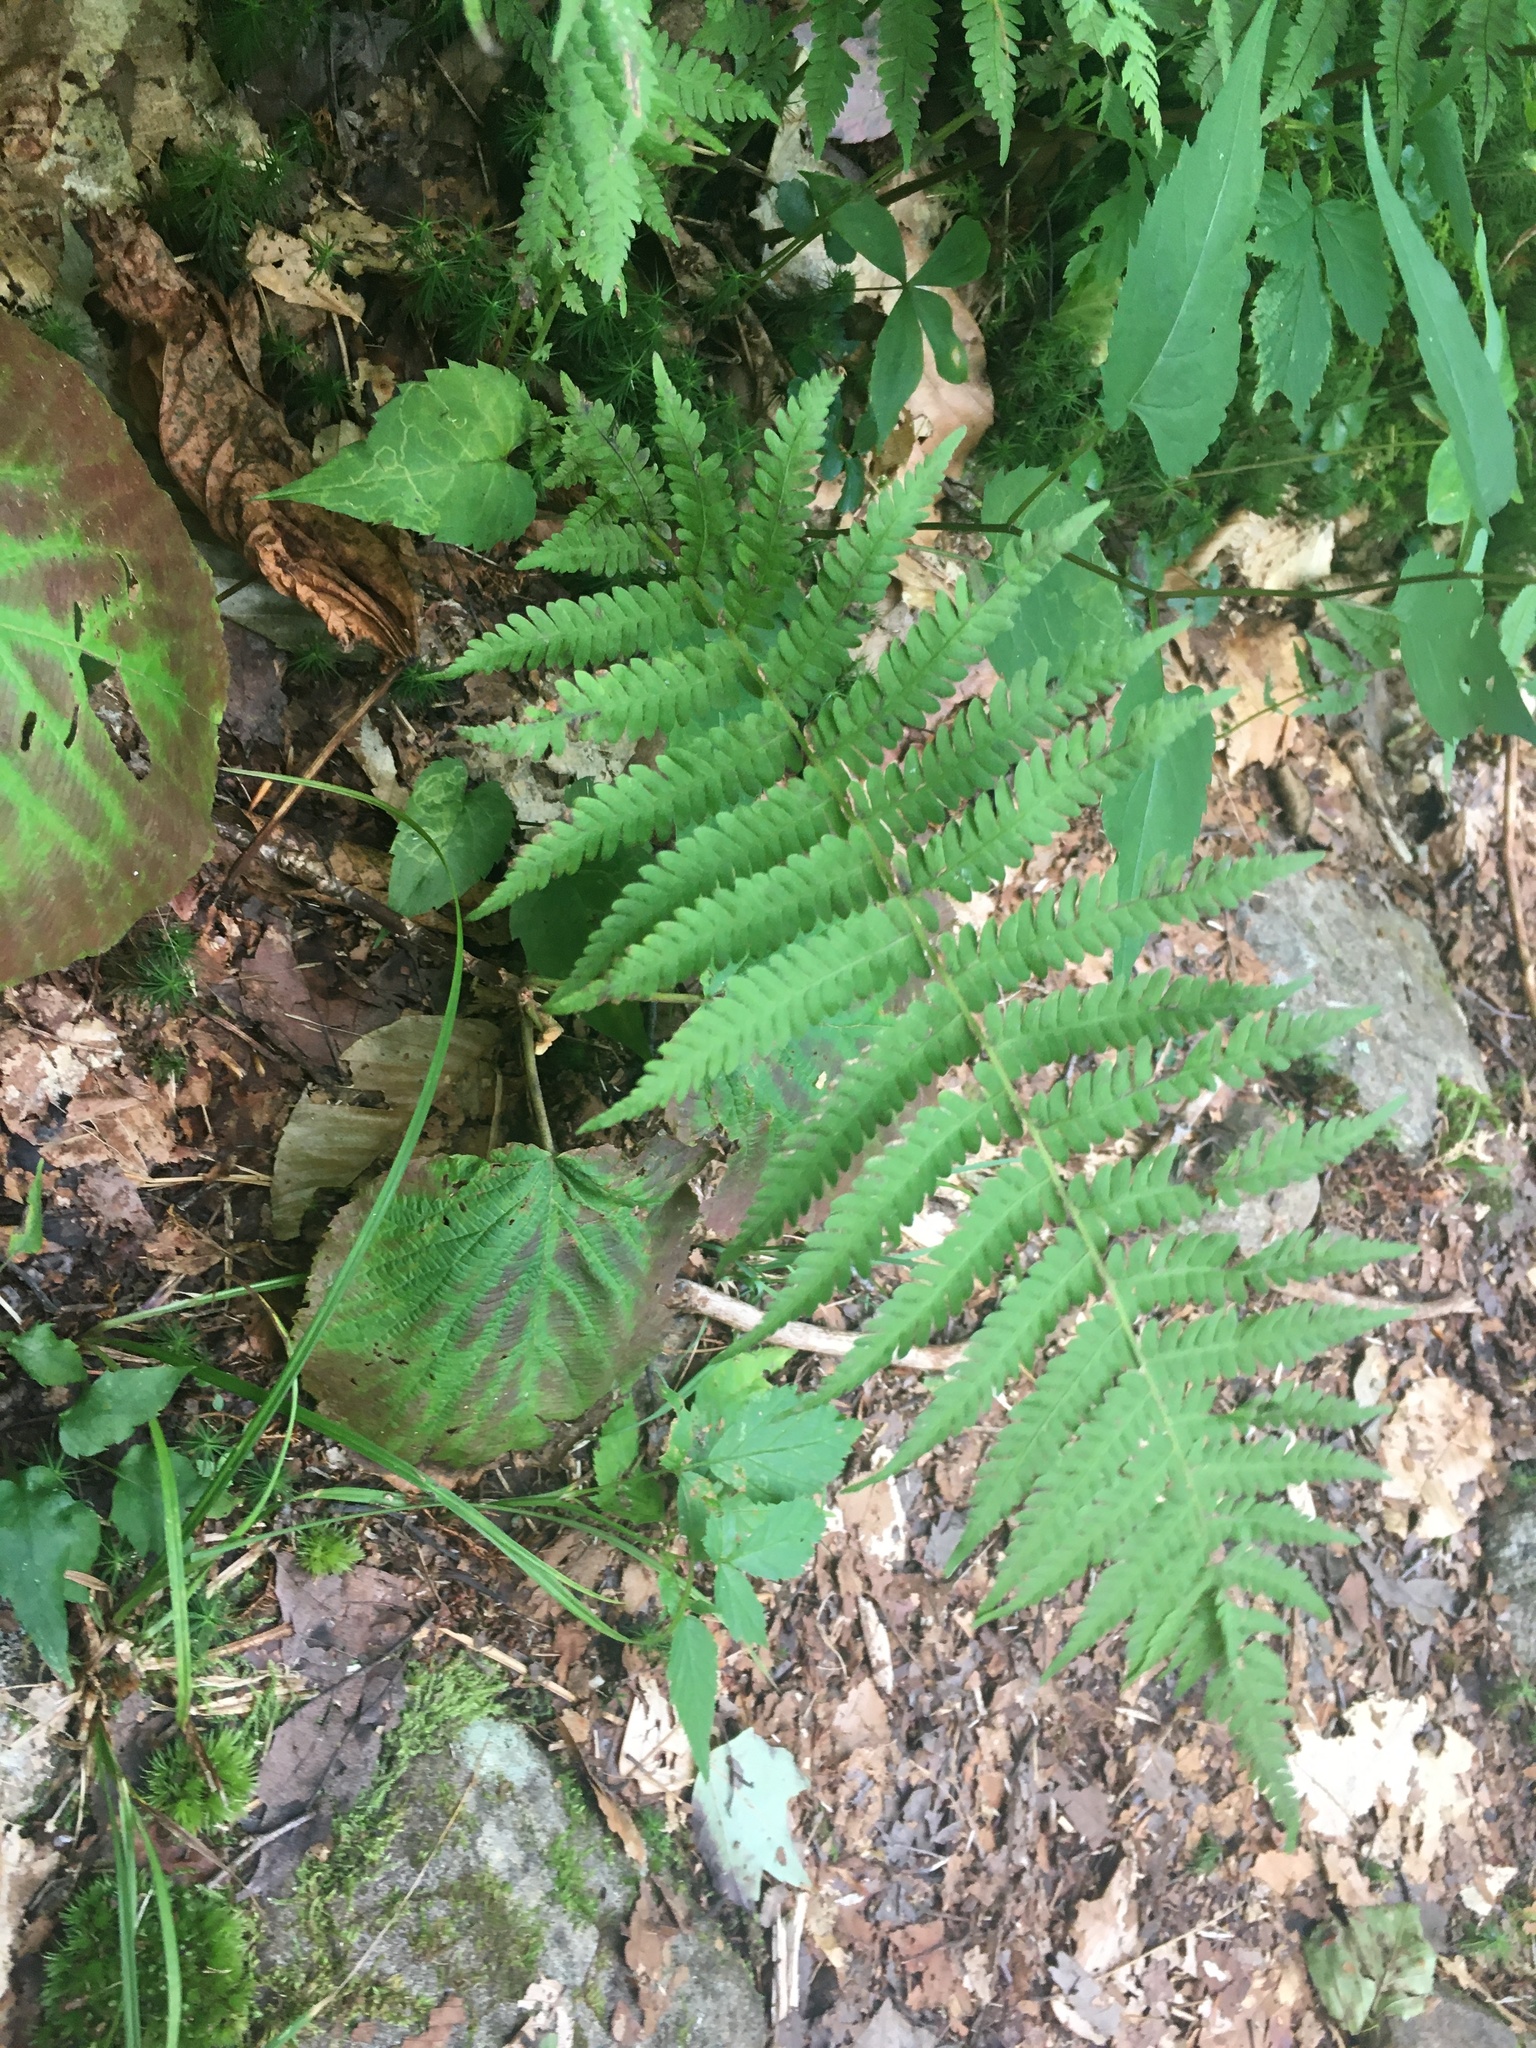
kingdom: Plantae
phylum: Tracheophyta
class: Polypodiopsida
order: Polypodiales
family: Thelypteridaceae
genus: Amauropelta
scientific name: Amauropelta noveboracensis
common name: New york fern
